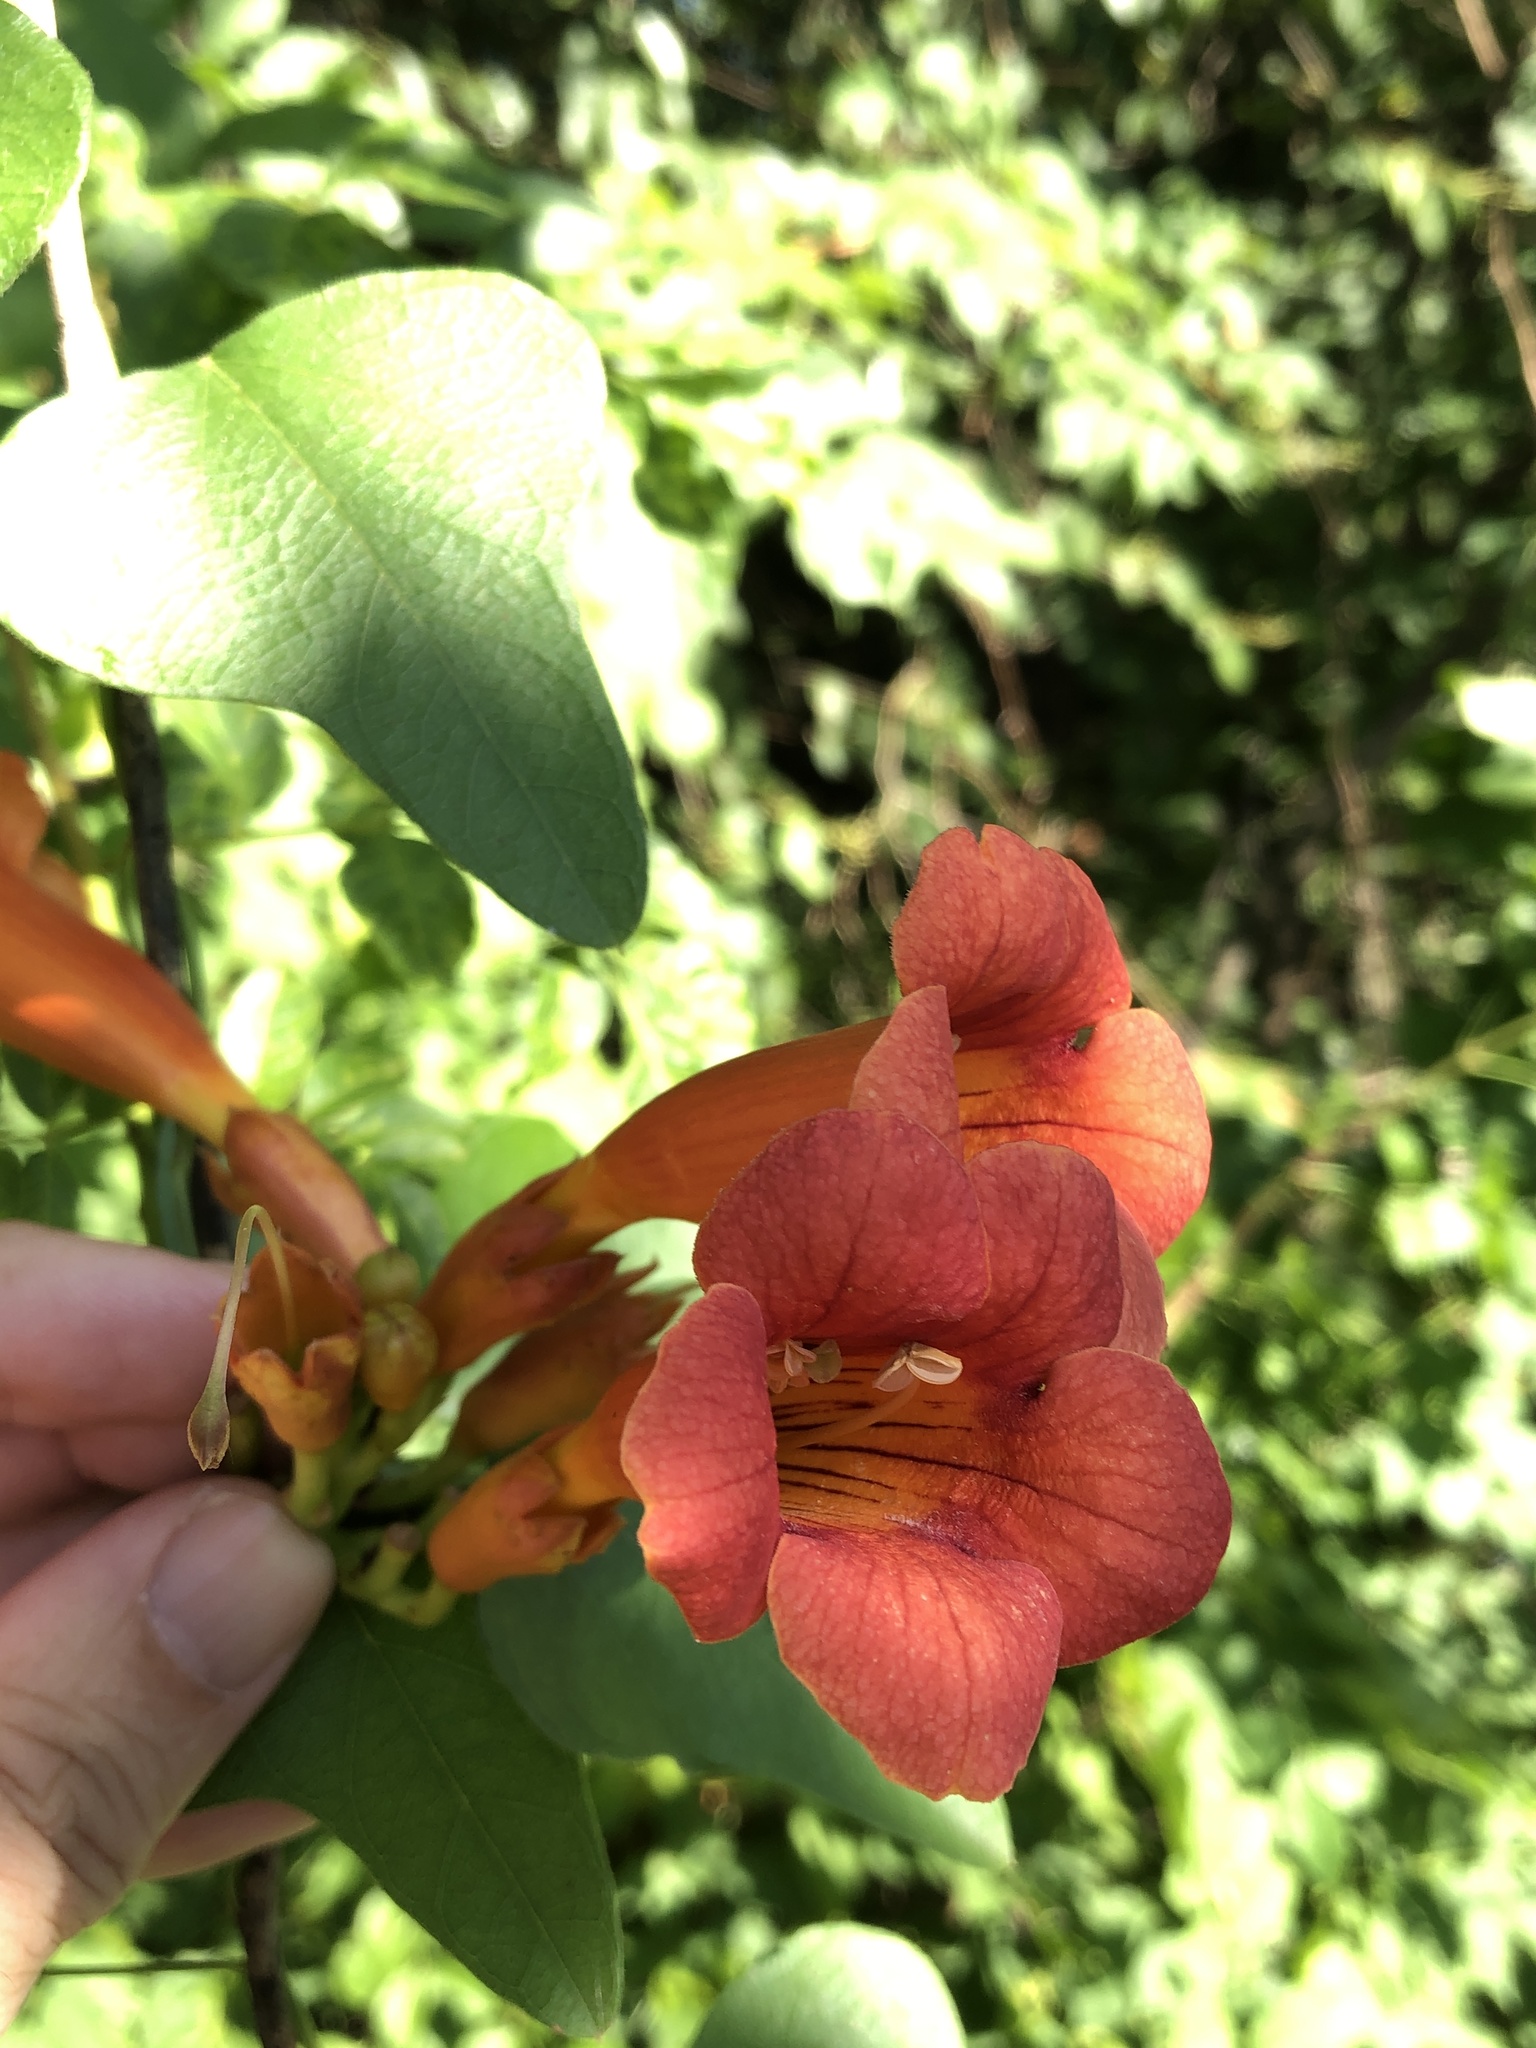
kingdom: Plantae
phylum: Tracheophyta
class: Magnoliopsida
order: Lamiales
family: Bignoniaceae
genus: Campsis
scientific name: Campsis radicans
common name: Trumpet-creeper
